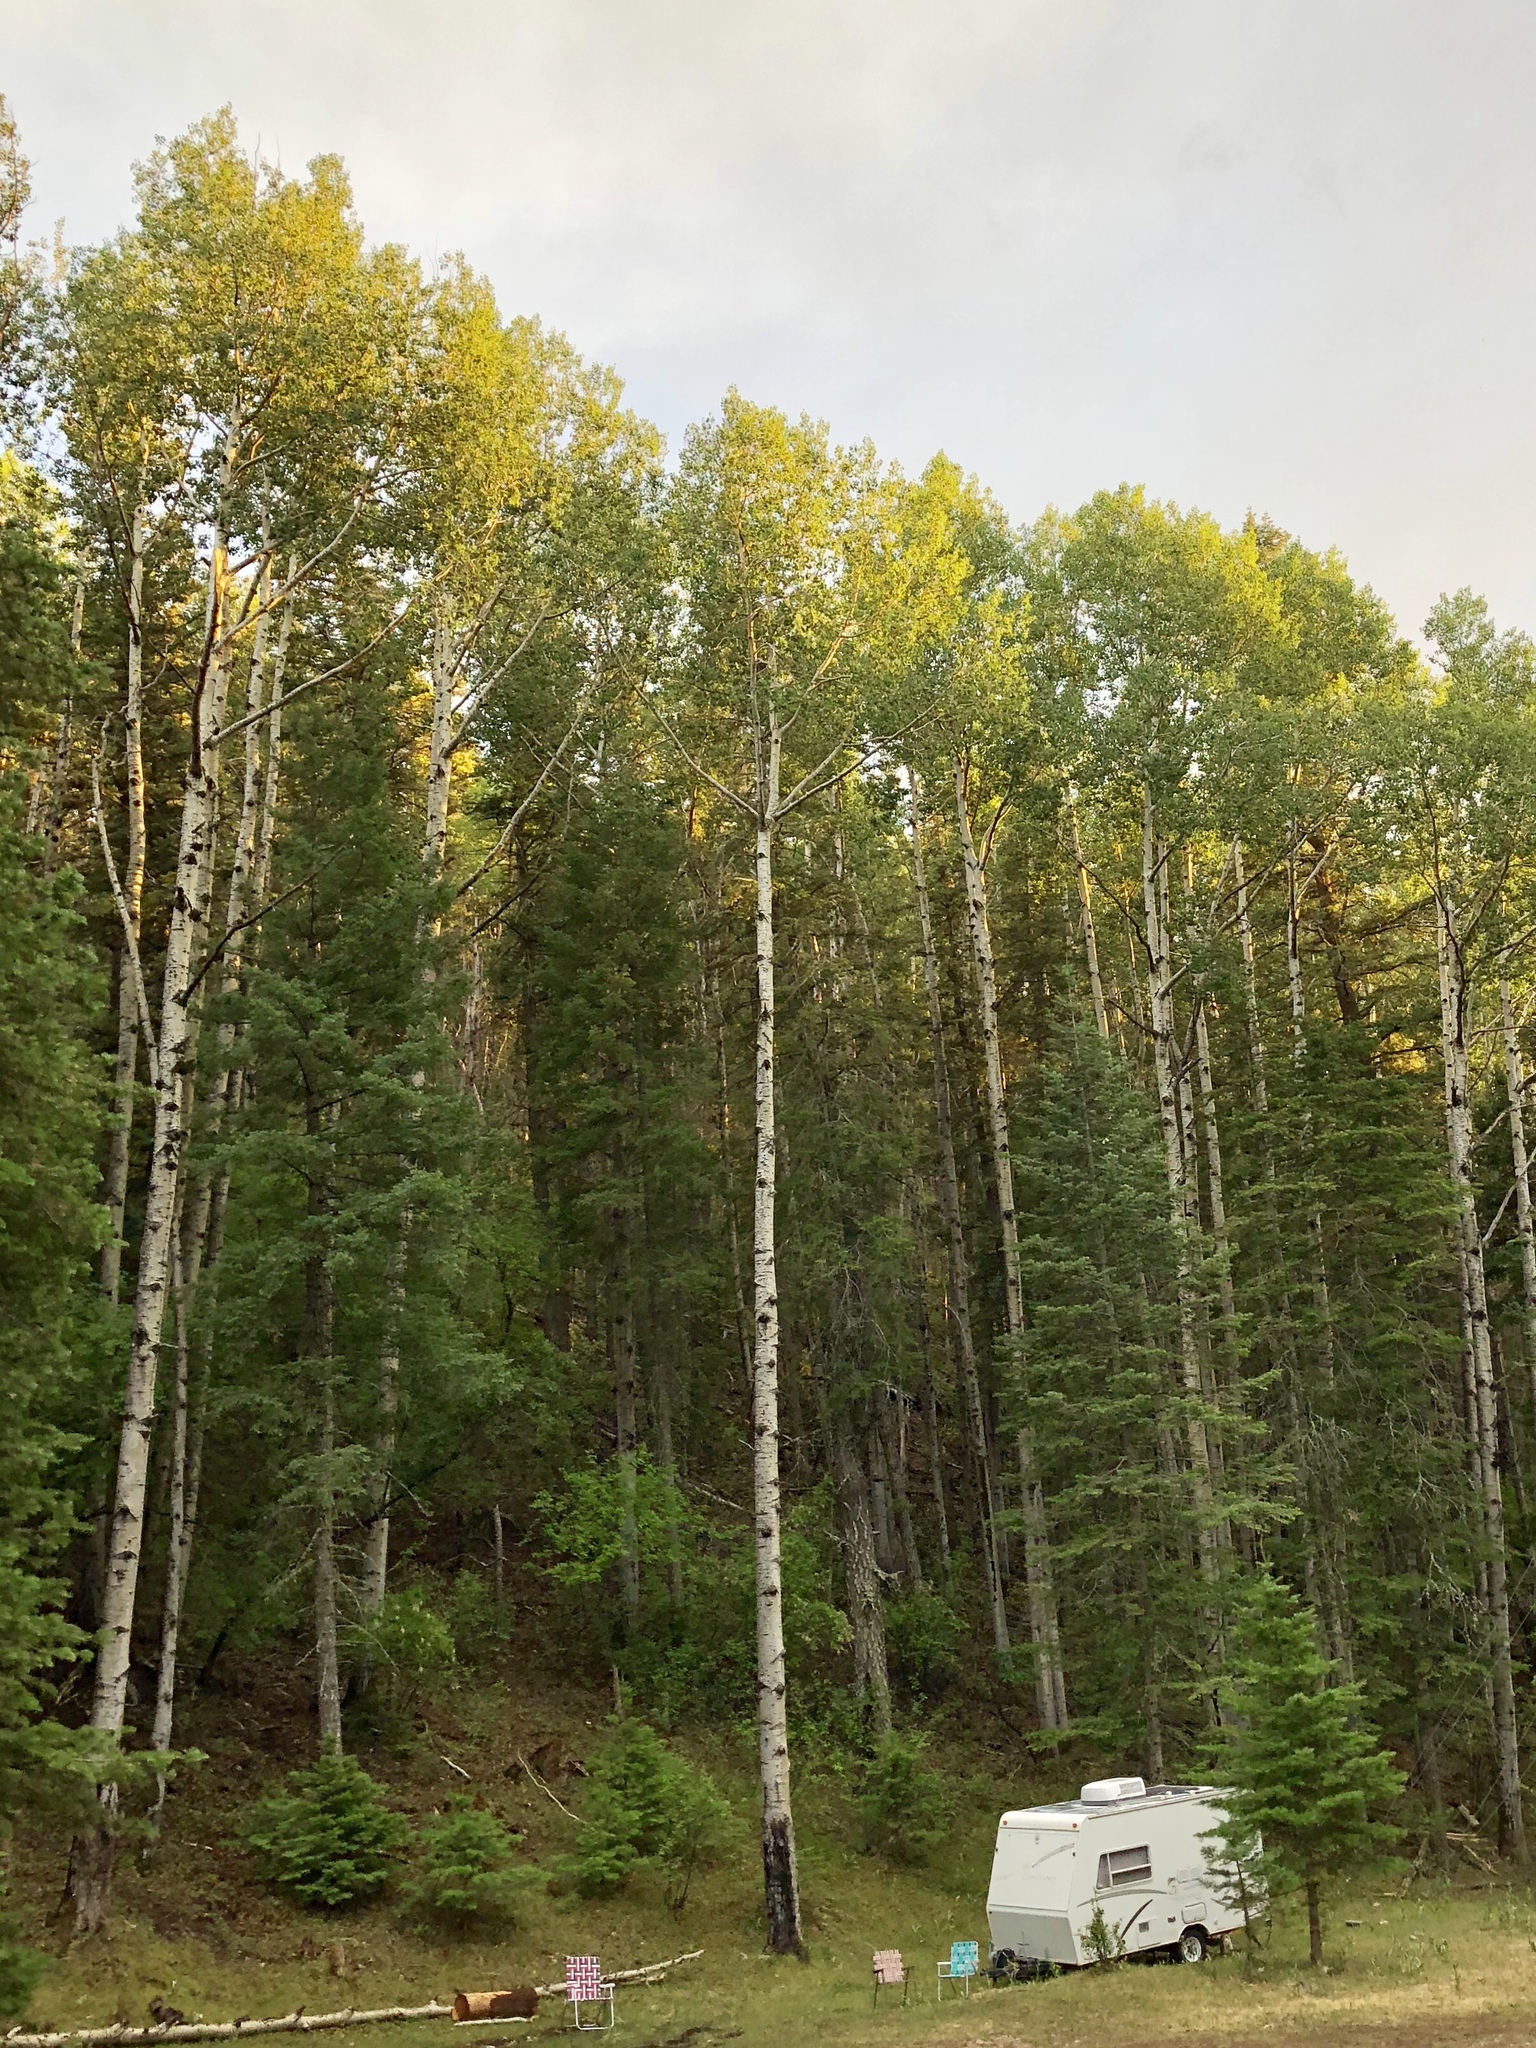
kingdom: Plantae
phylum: Tracheophyta
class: Magnoliopsida
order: Malpighiales
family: Salicaceae
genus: Populus
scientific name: Populus tremuloides
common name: Quaking aspen
